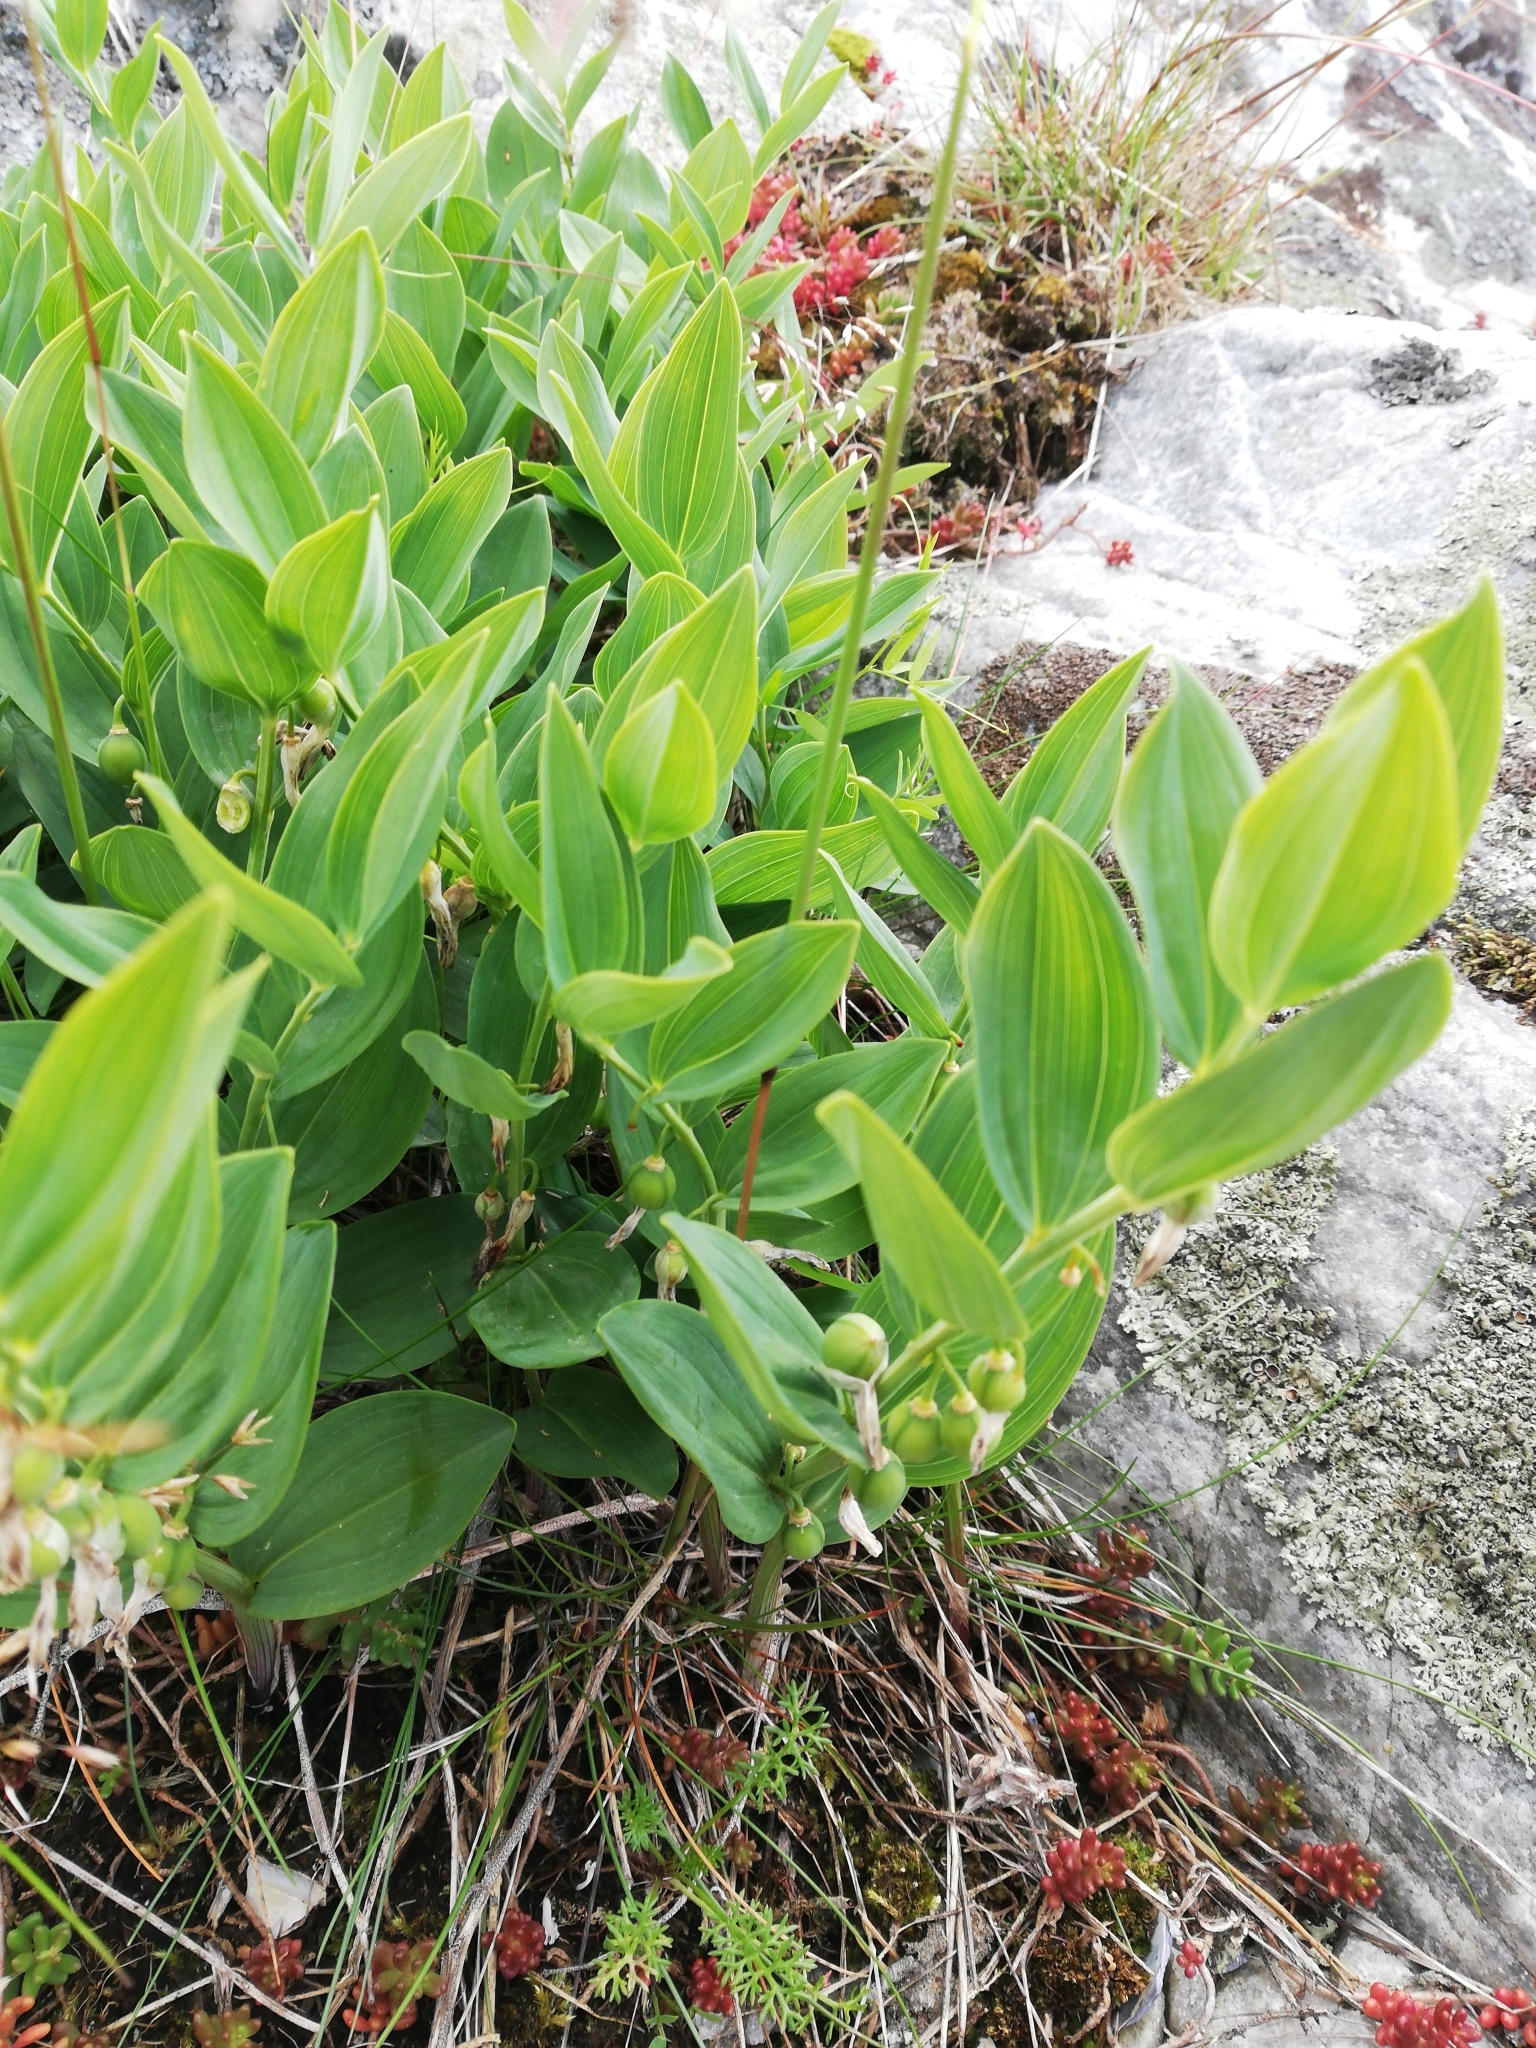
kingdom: Plantae
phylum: Tracheophyta
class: Liliopsida
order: Asparagales
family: Asparagaceae
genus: Polygonatum
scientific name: Polygonatum odoratum
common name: Angular solomon's-seal
